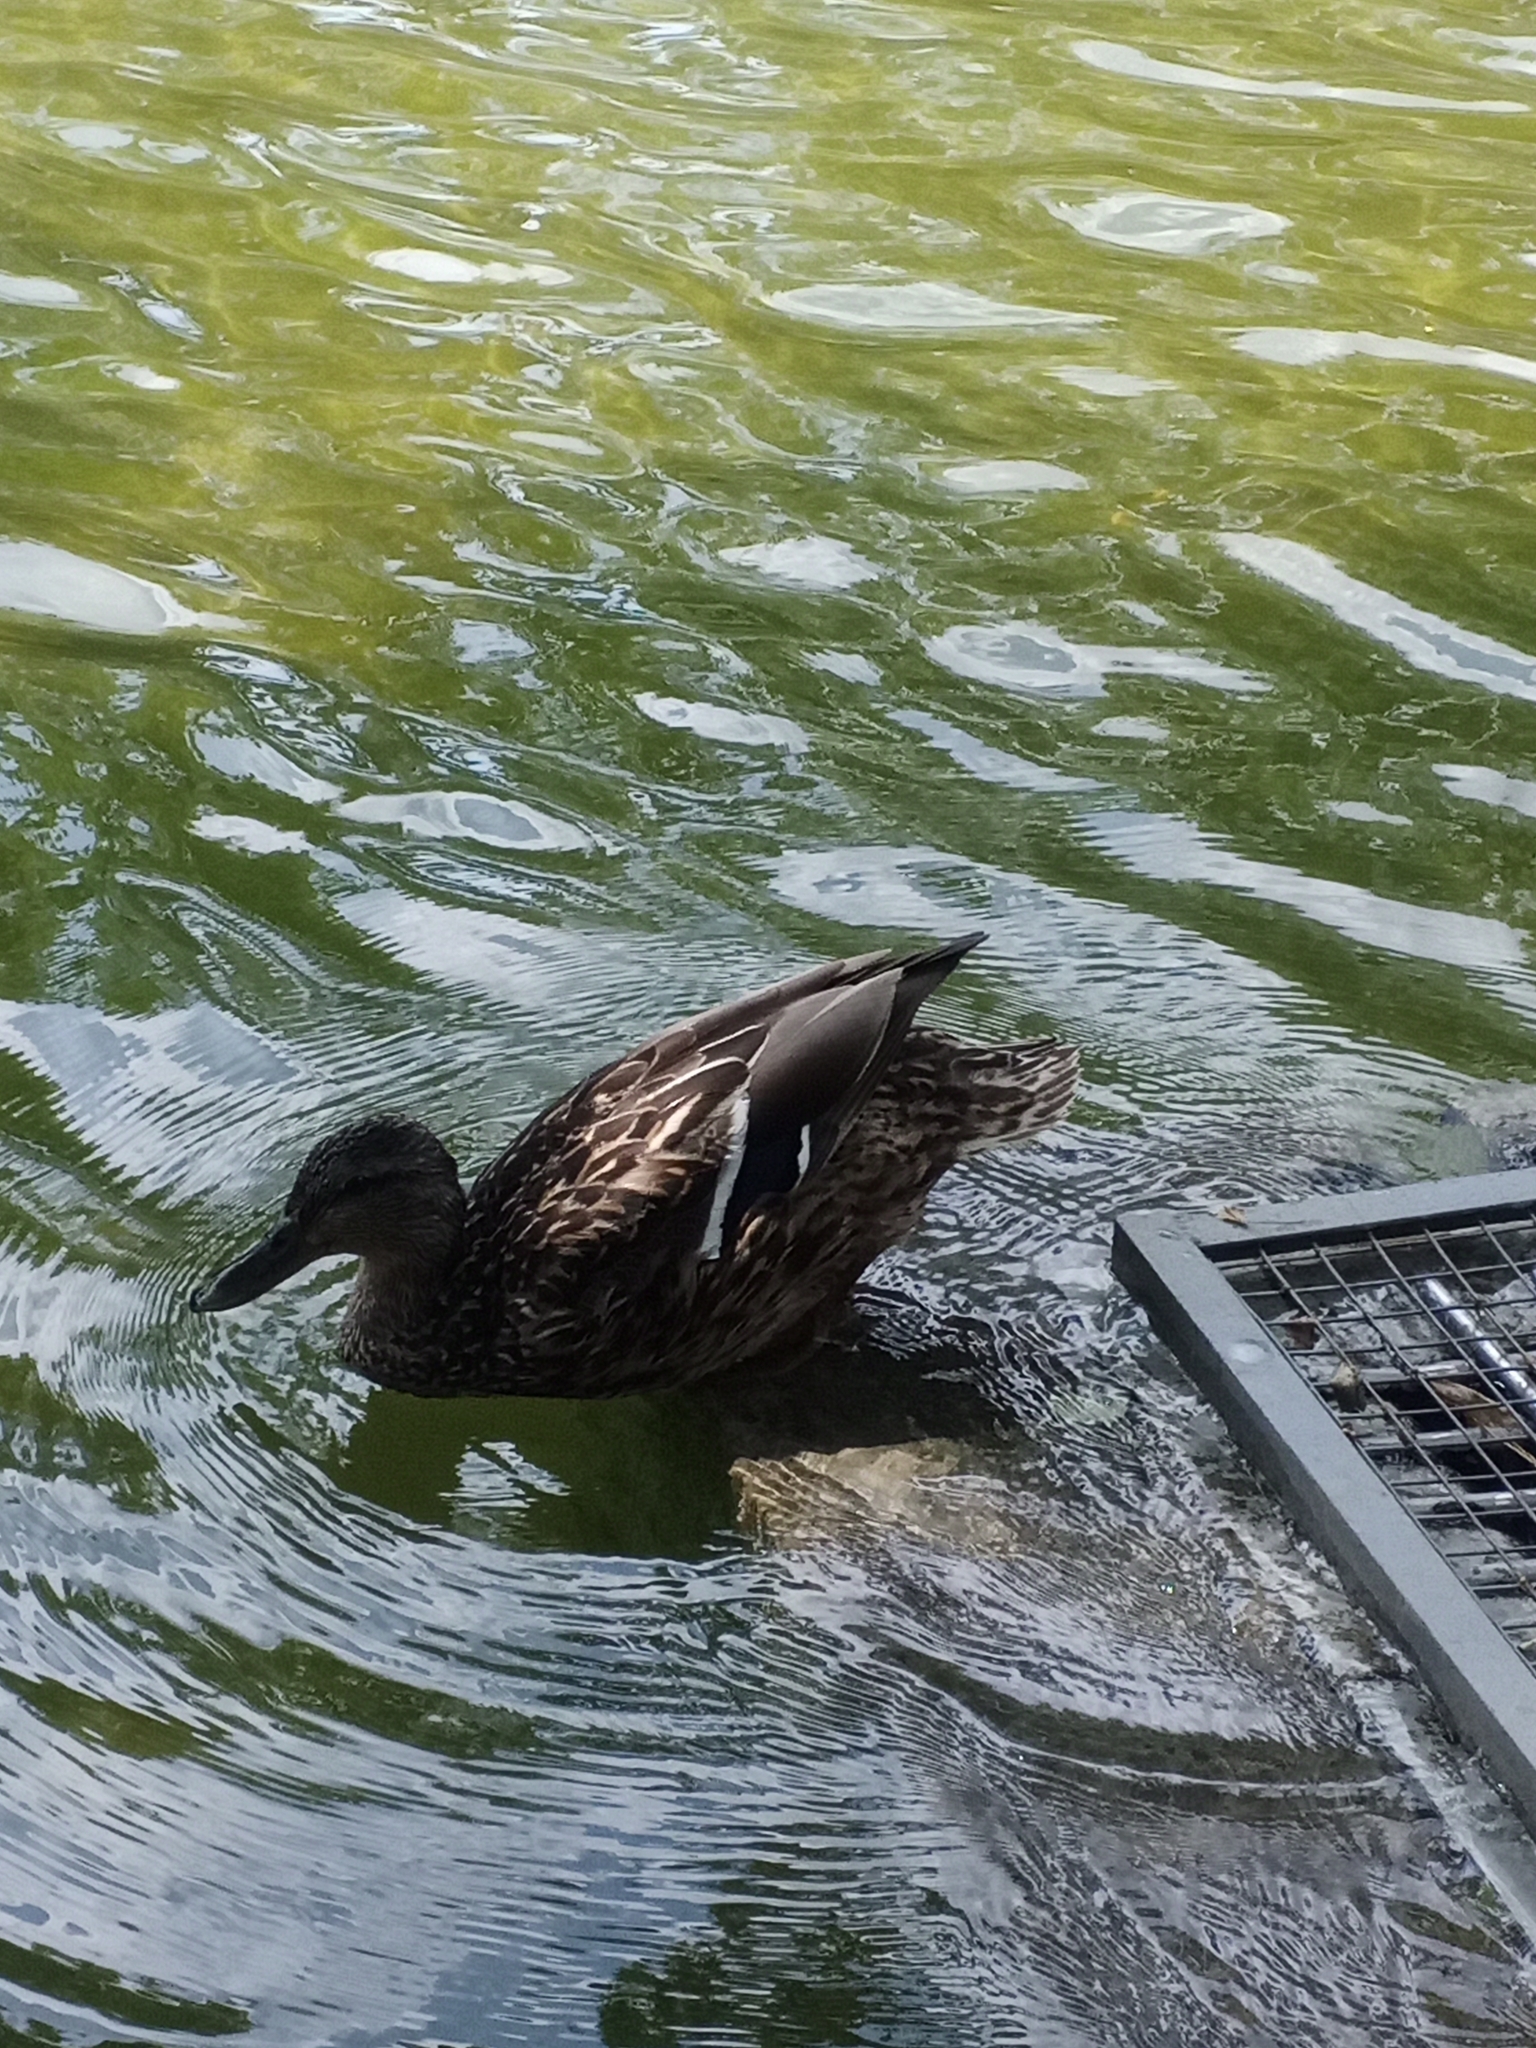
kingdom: Animalia
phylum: Chordata
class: Aves
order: Anseriformes
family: Anatidae
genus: Anas
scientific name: Anas platyrhynchos
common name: Mallard
